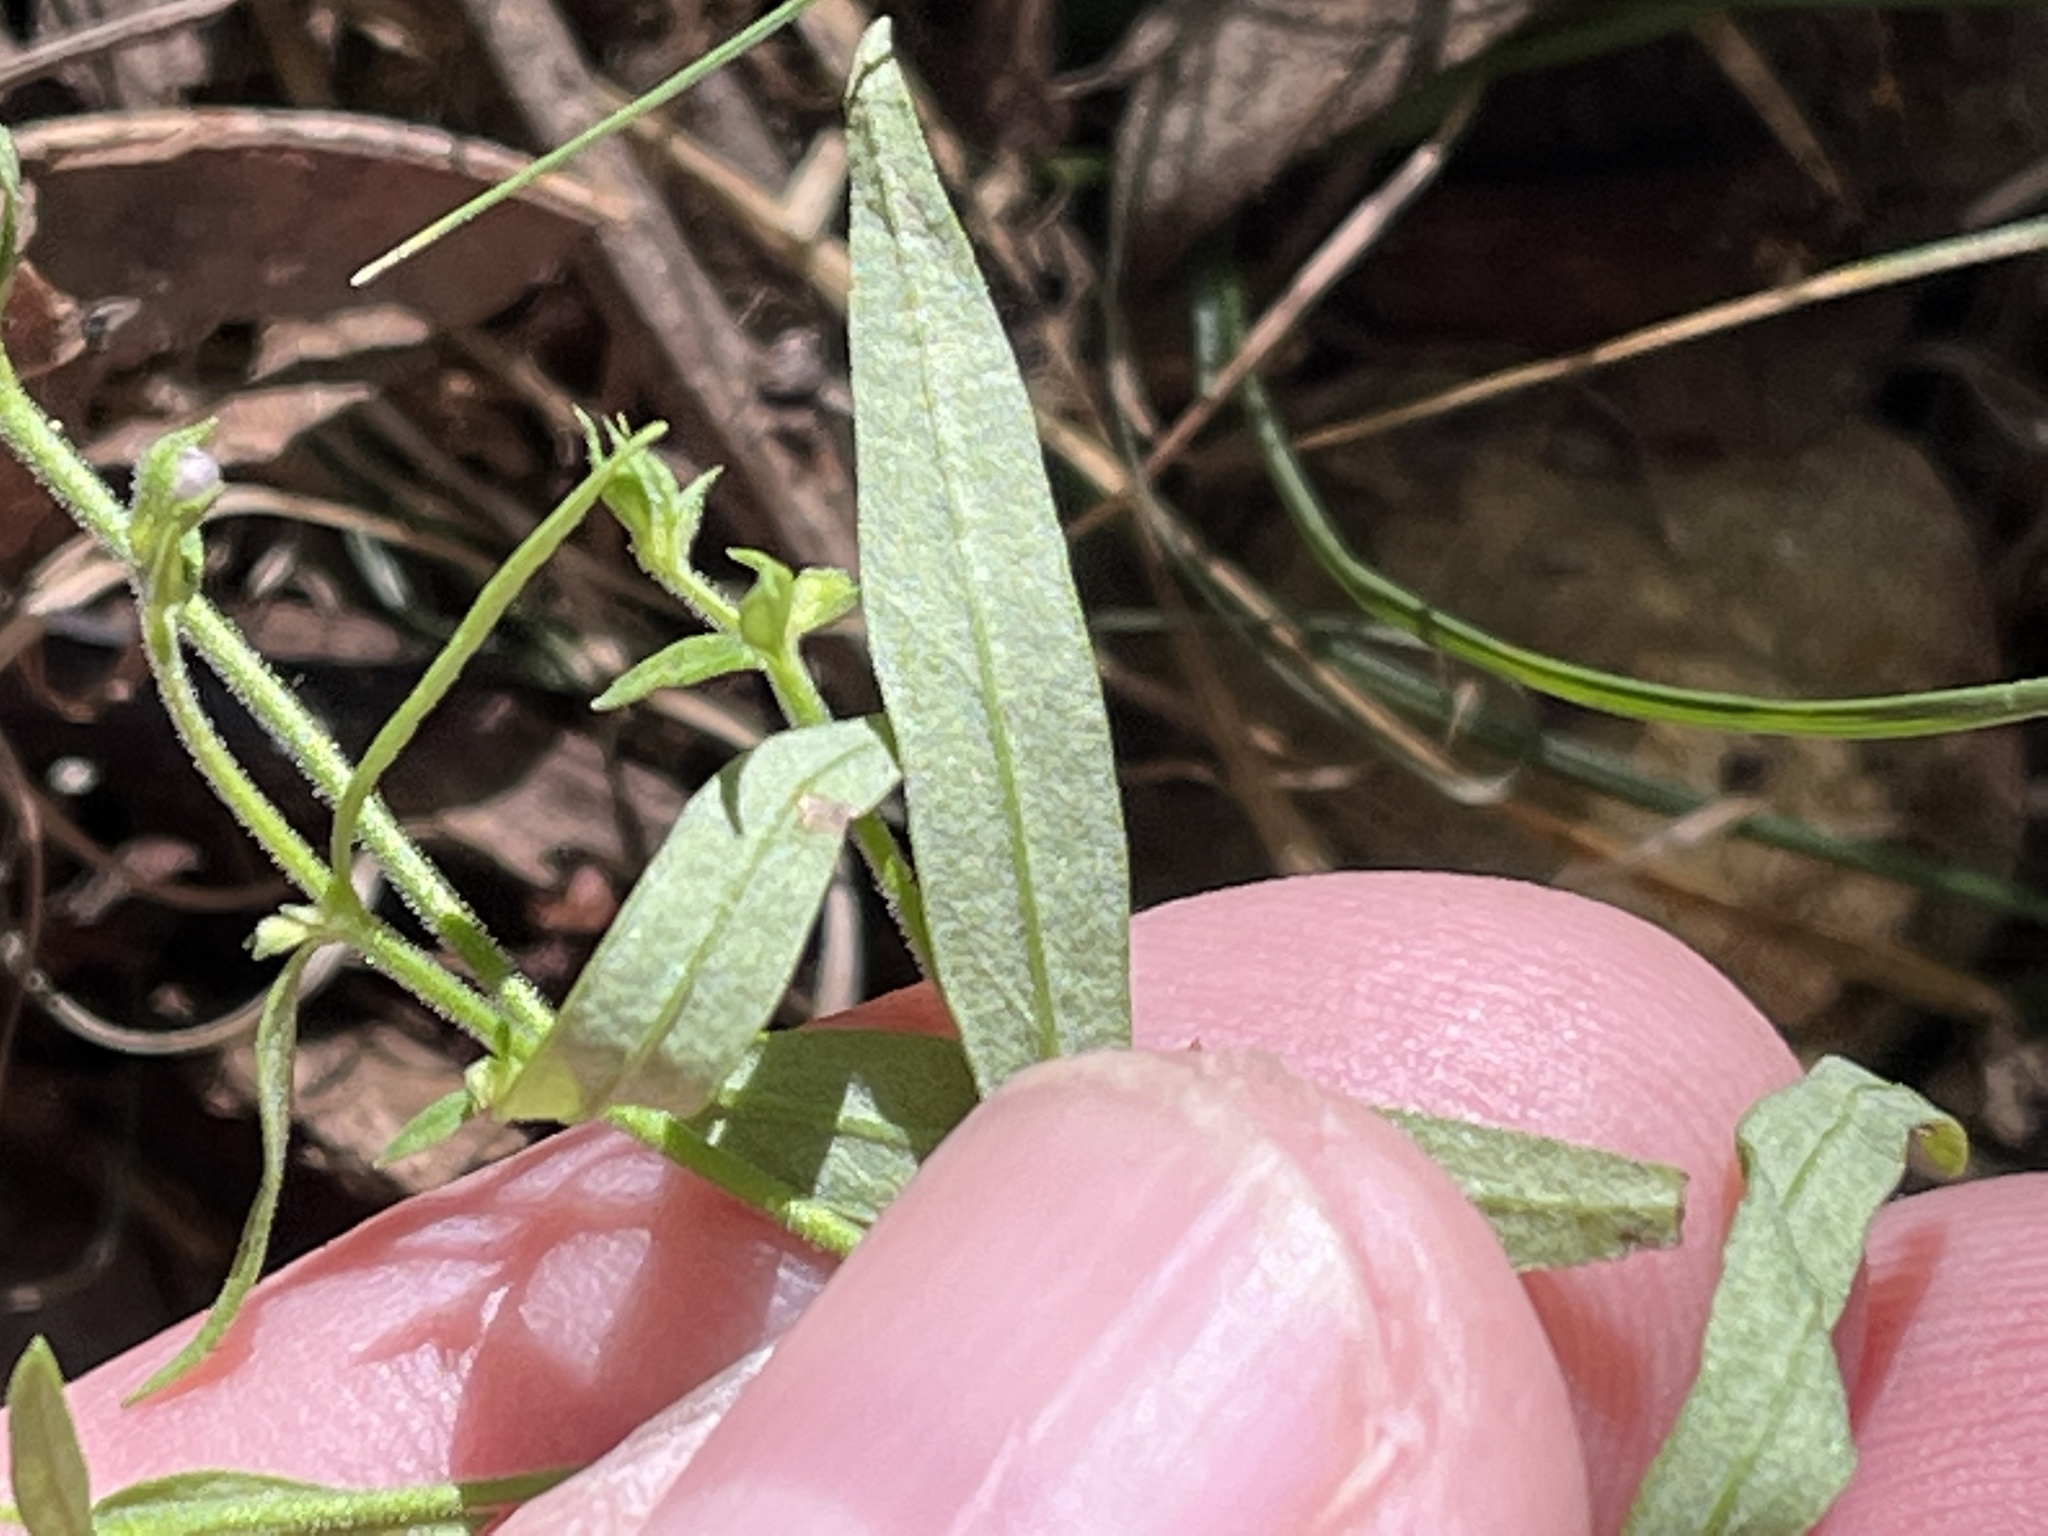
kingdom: Plantae
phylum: Tracheophyta
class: Magnoliopsida
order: Lamiales
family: Lamiaceae
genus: Trichostema
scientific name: Trichostema setaceum
